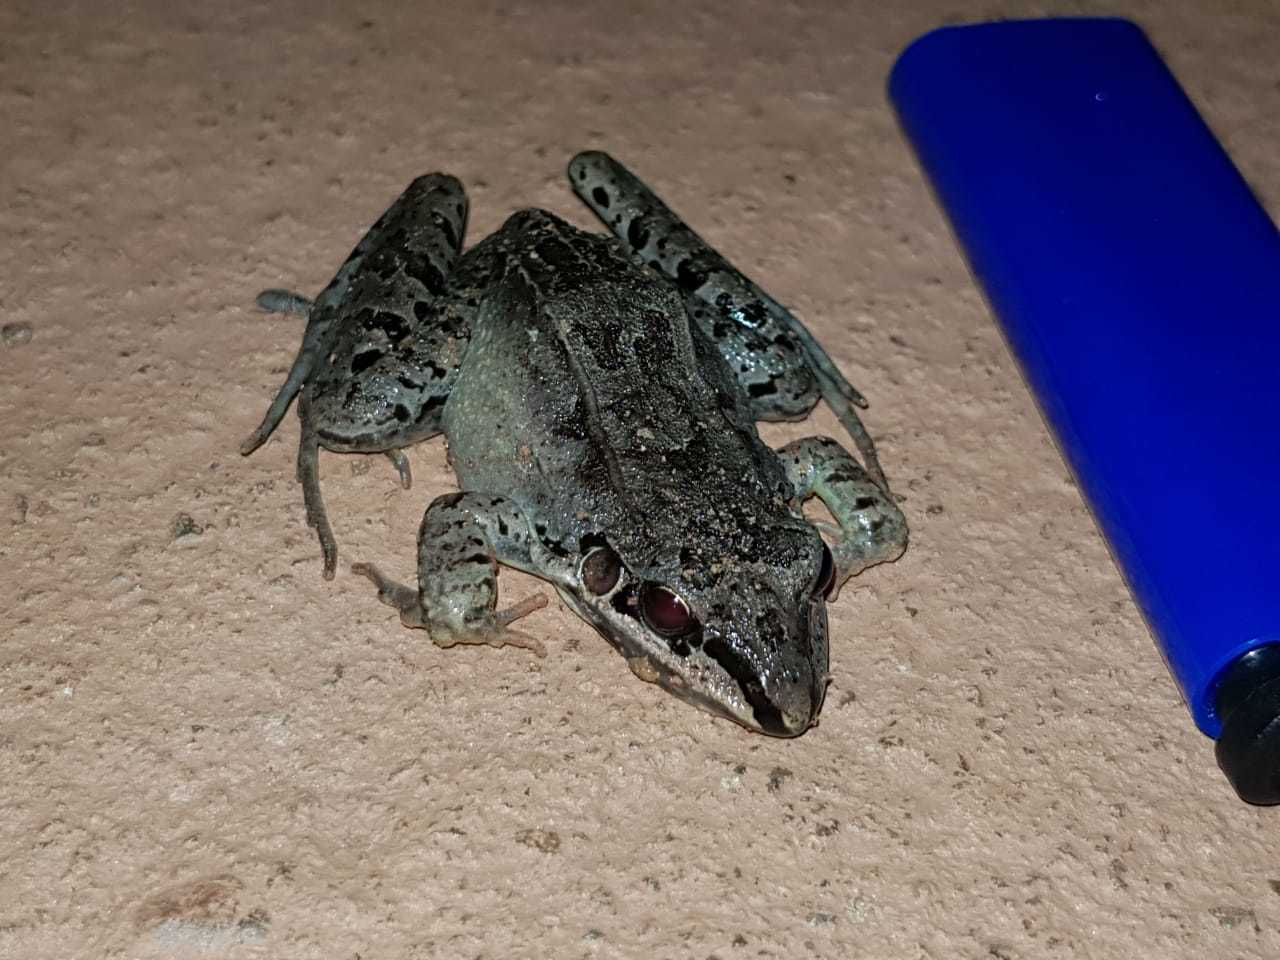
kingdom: Animalia
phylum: Chordata
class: Amphibia
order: Anura
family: Leptodactylidae
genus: Leptodactylus
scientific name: Leptodactylus longirostris
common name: Long snouted thin-toed frog
